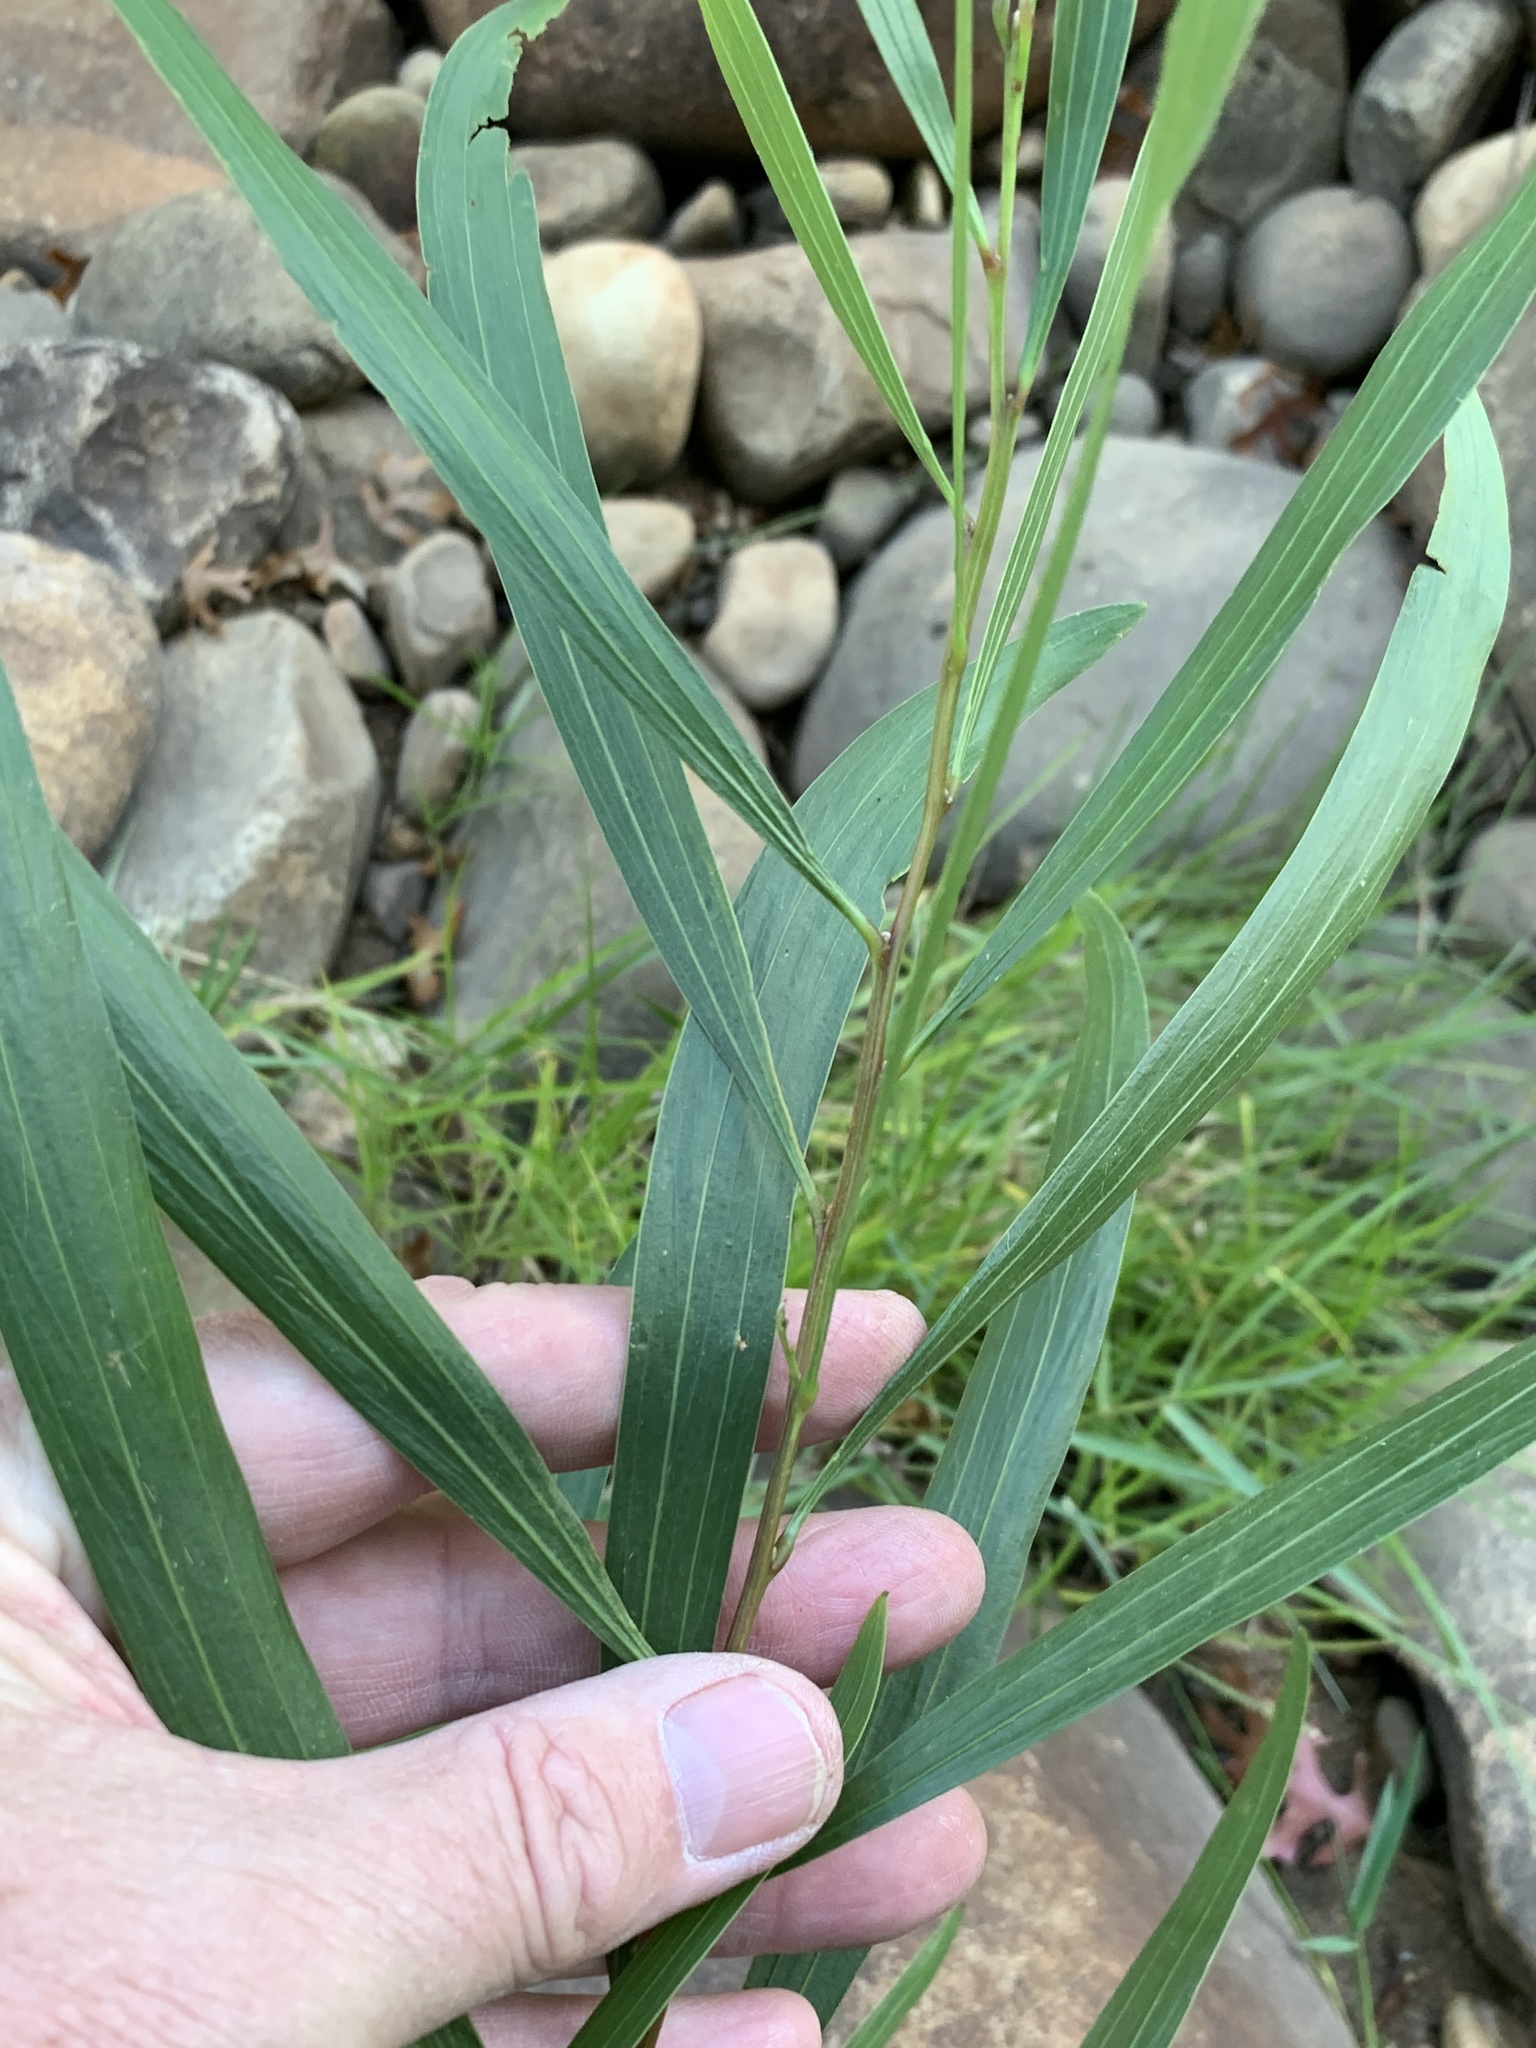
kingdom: Plantae
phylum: Tracheophyta
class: Magnoliopsida
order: Fabales
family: Fabaceae
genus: Acacia
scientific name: Acacia longifolia
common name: Sydney golden wattle
